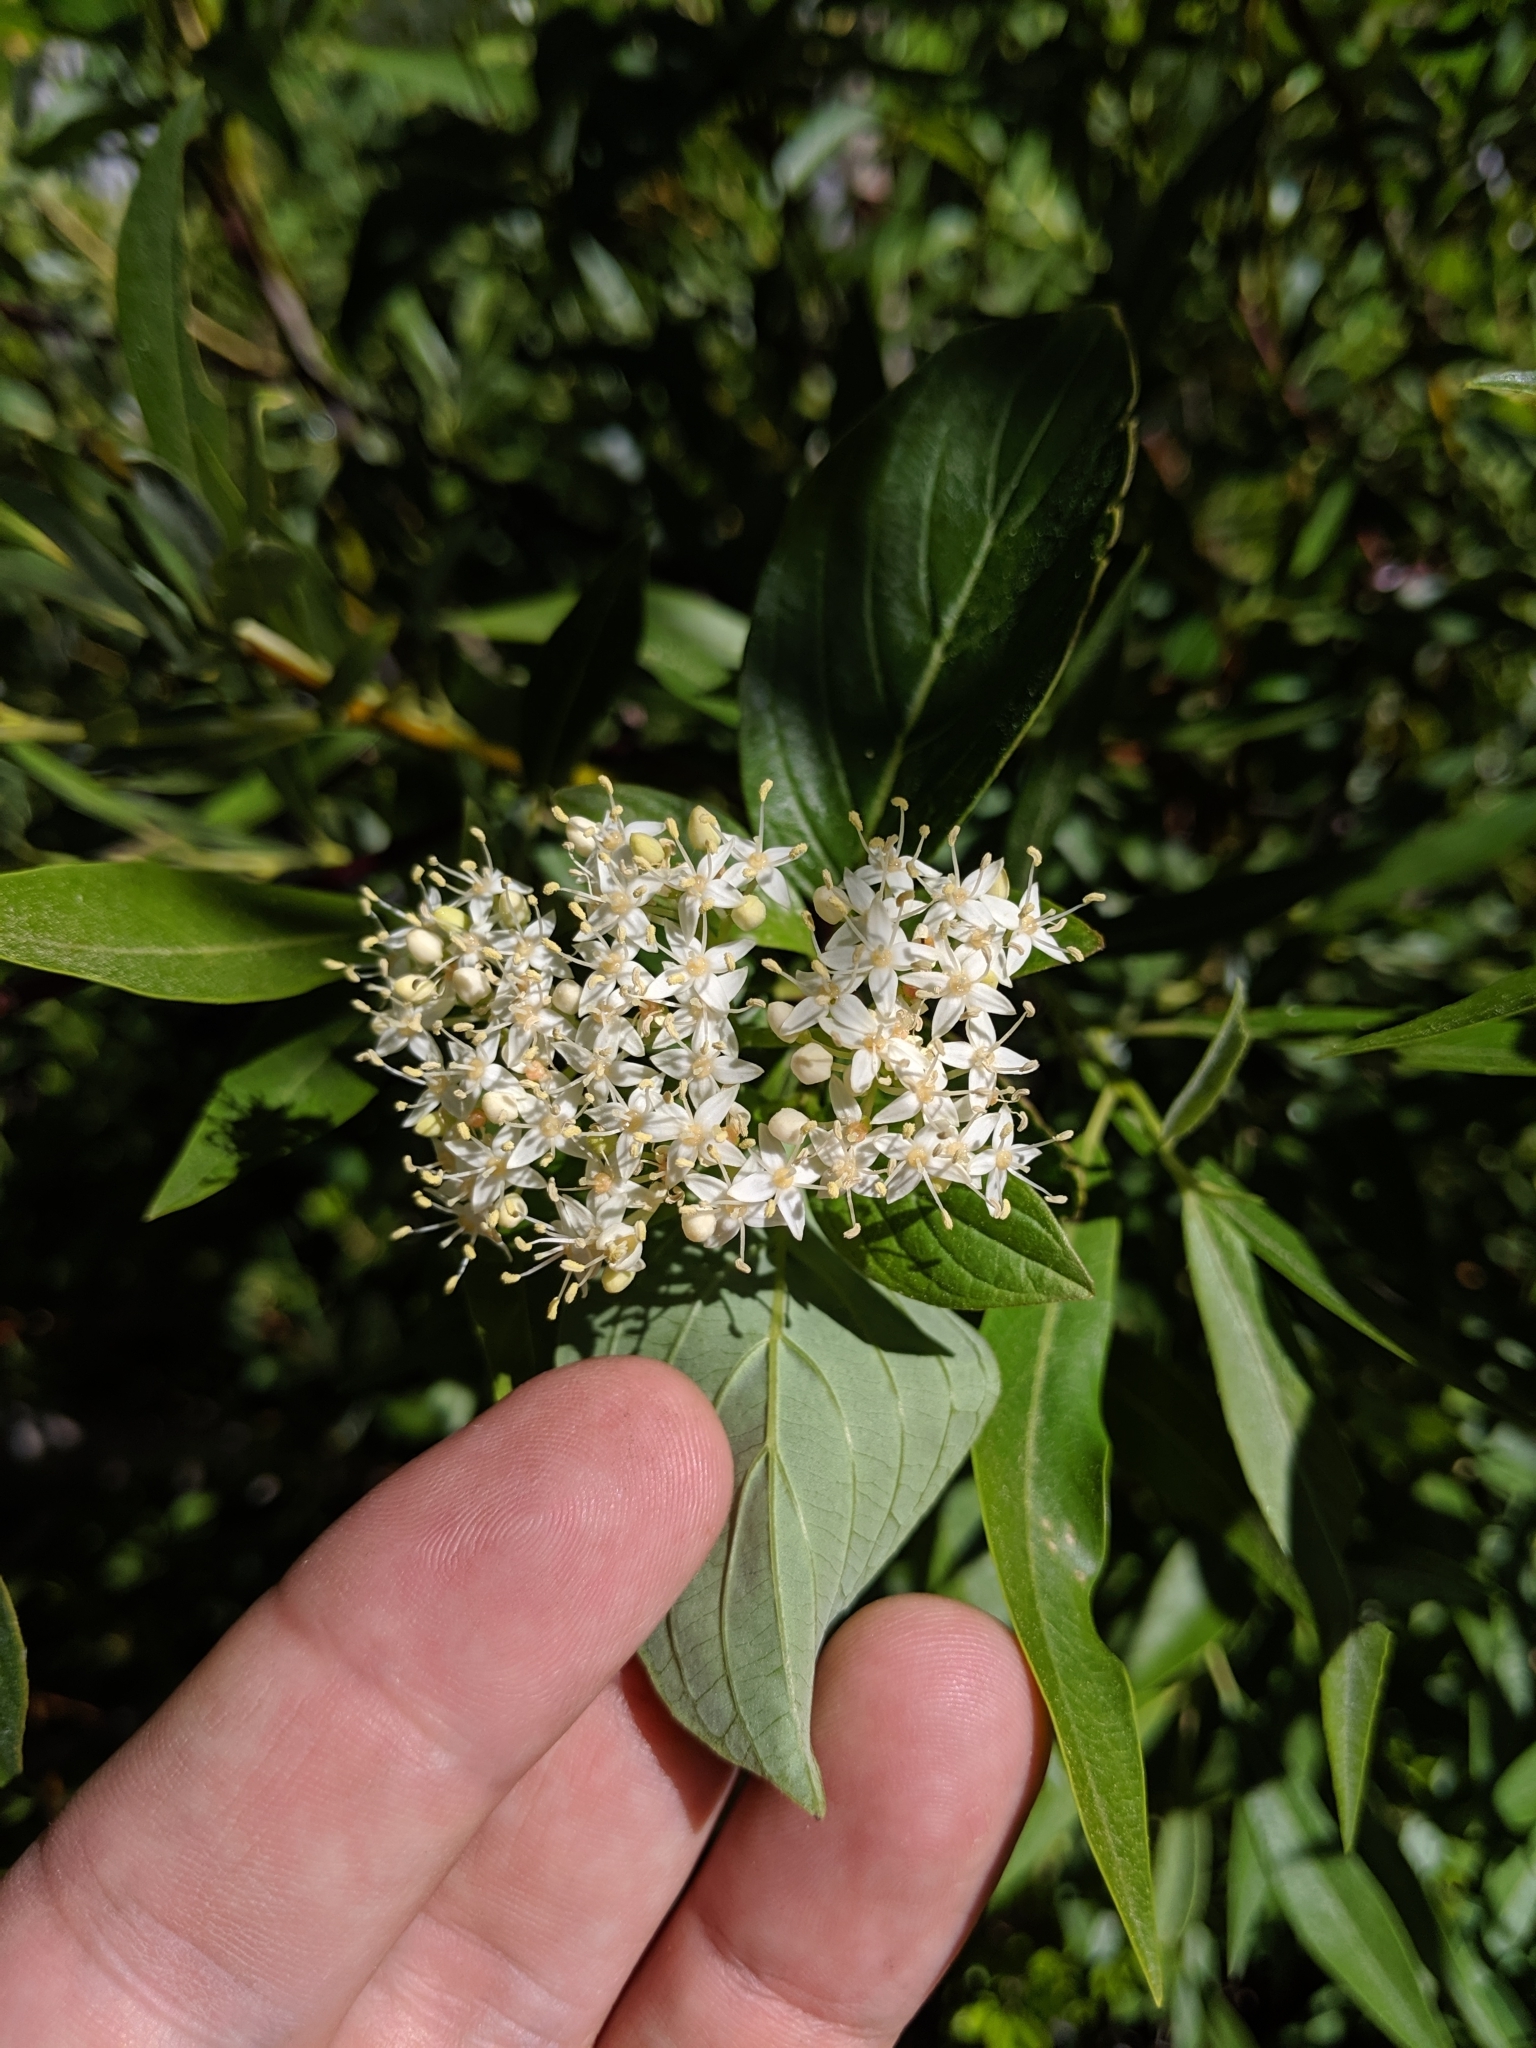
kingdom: Plantae
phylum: Tracheophyta
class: Magnoliopsida
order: Cornales
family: Cornaceae
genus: Cornus
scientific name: Cornus sericea
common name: Red-osier dogwood
